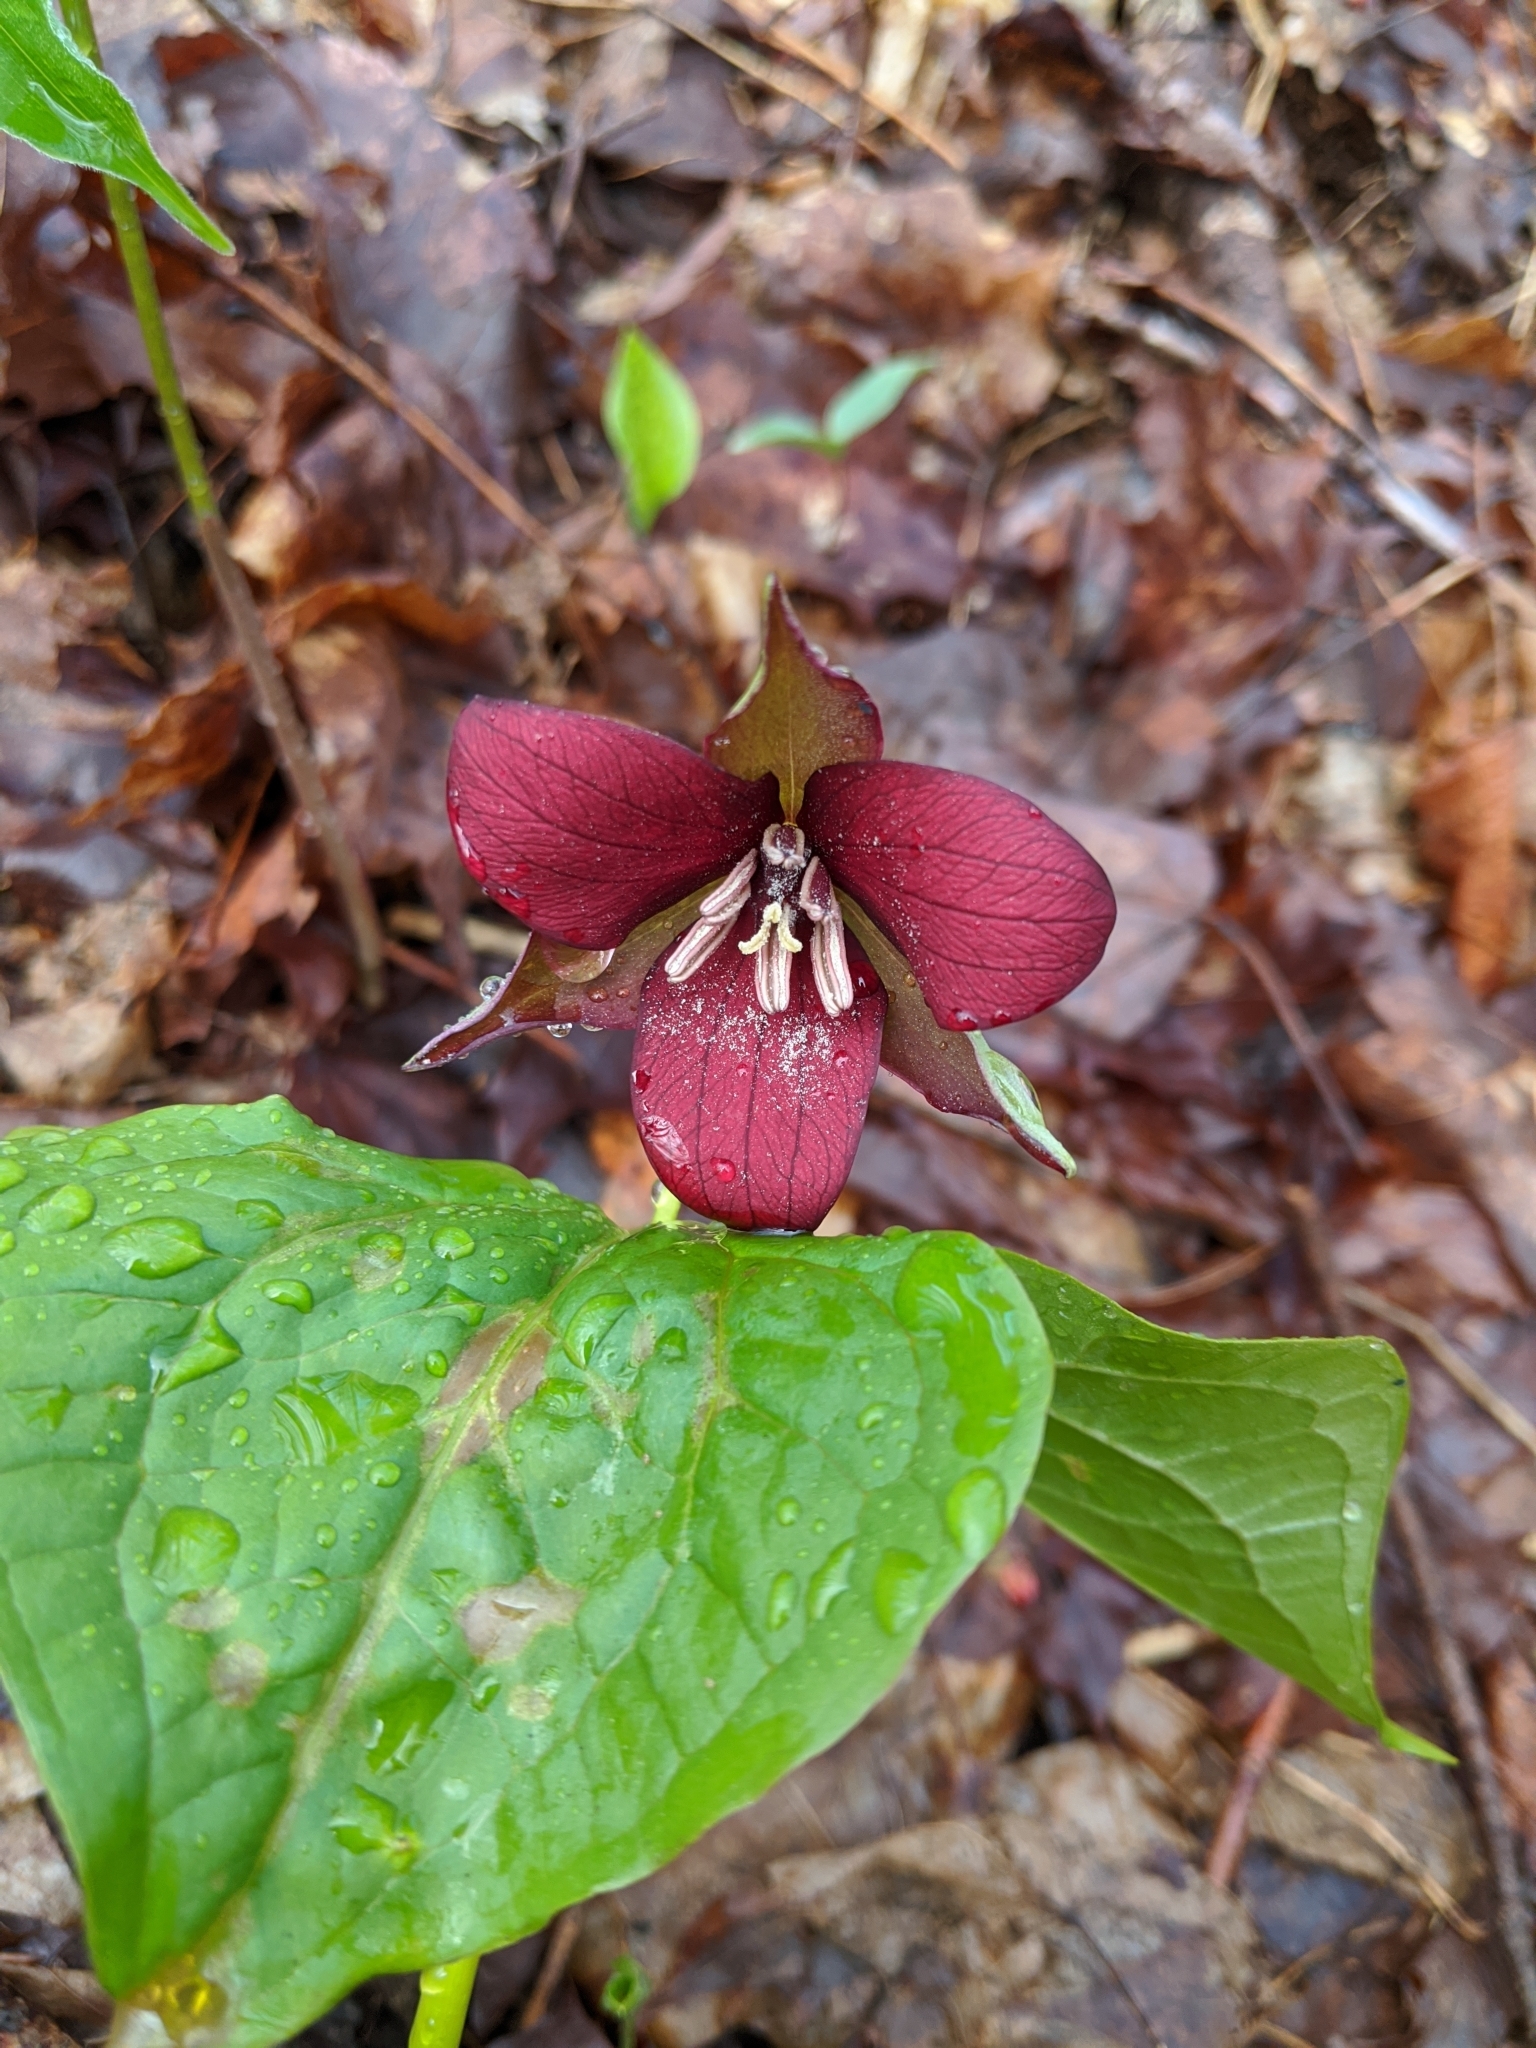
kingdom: Plantae
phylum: Tracheophyta
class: Liliopsida
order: Liliales
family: Melanthiaceae
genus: Trillium
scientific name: Trillium erectum
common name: Purple trillium
